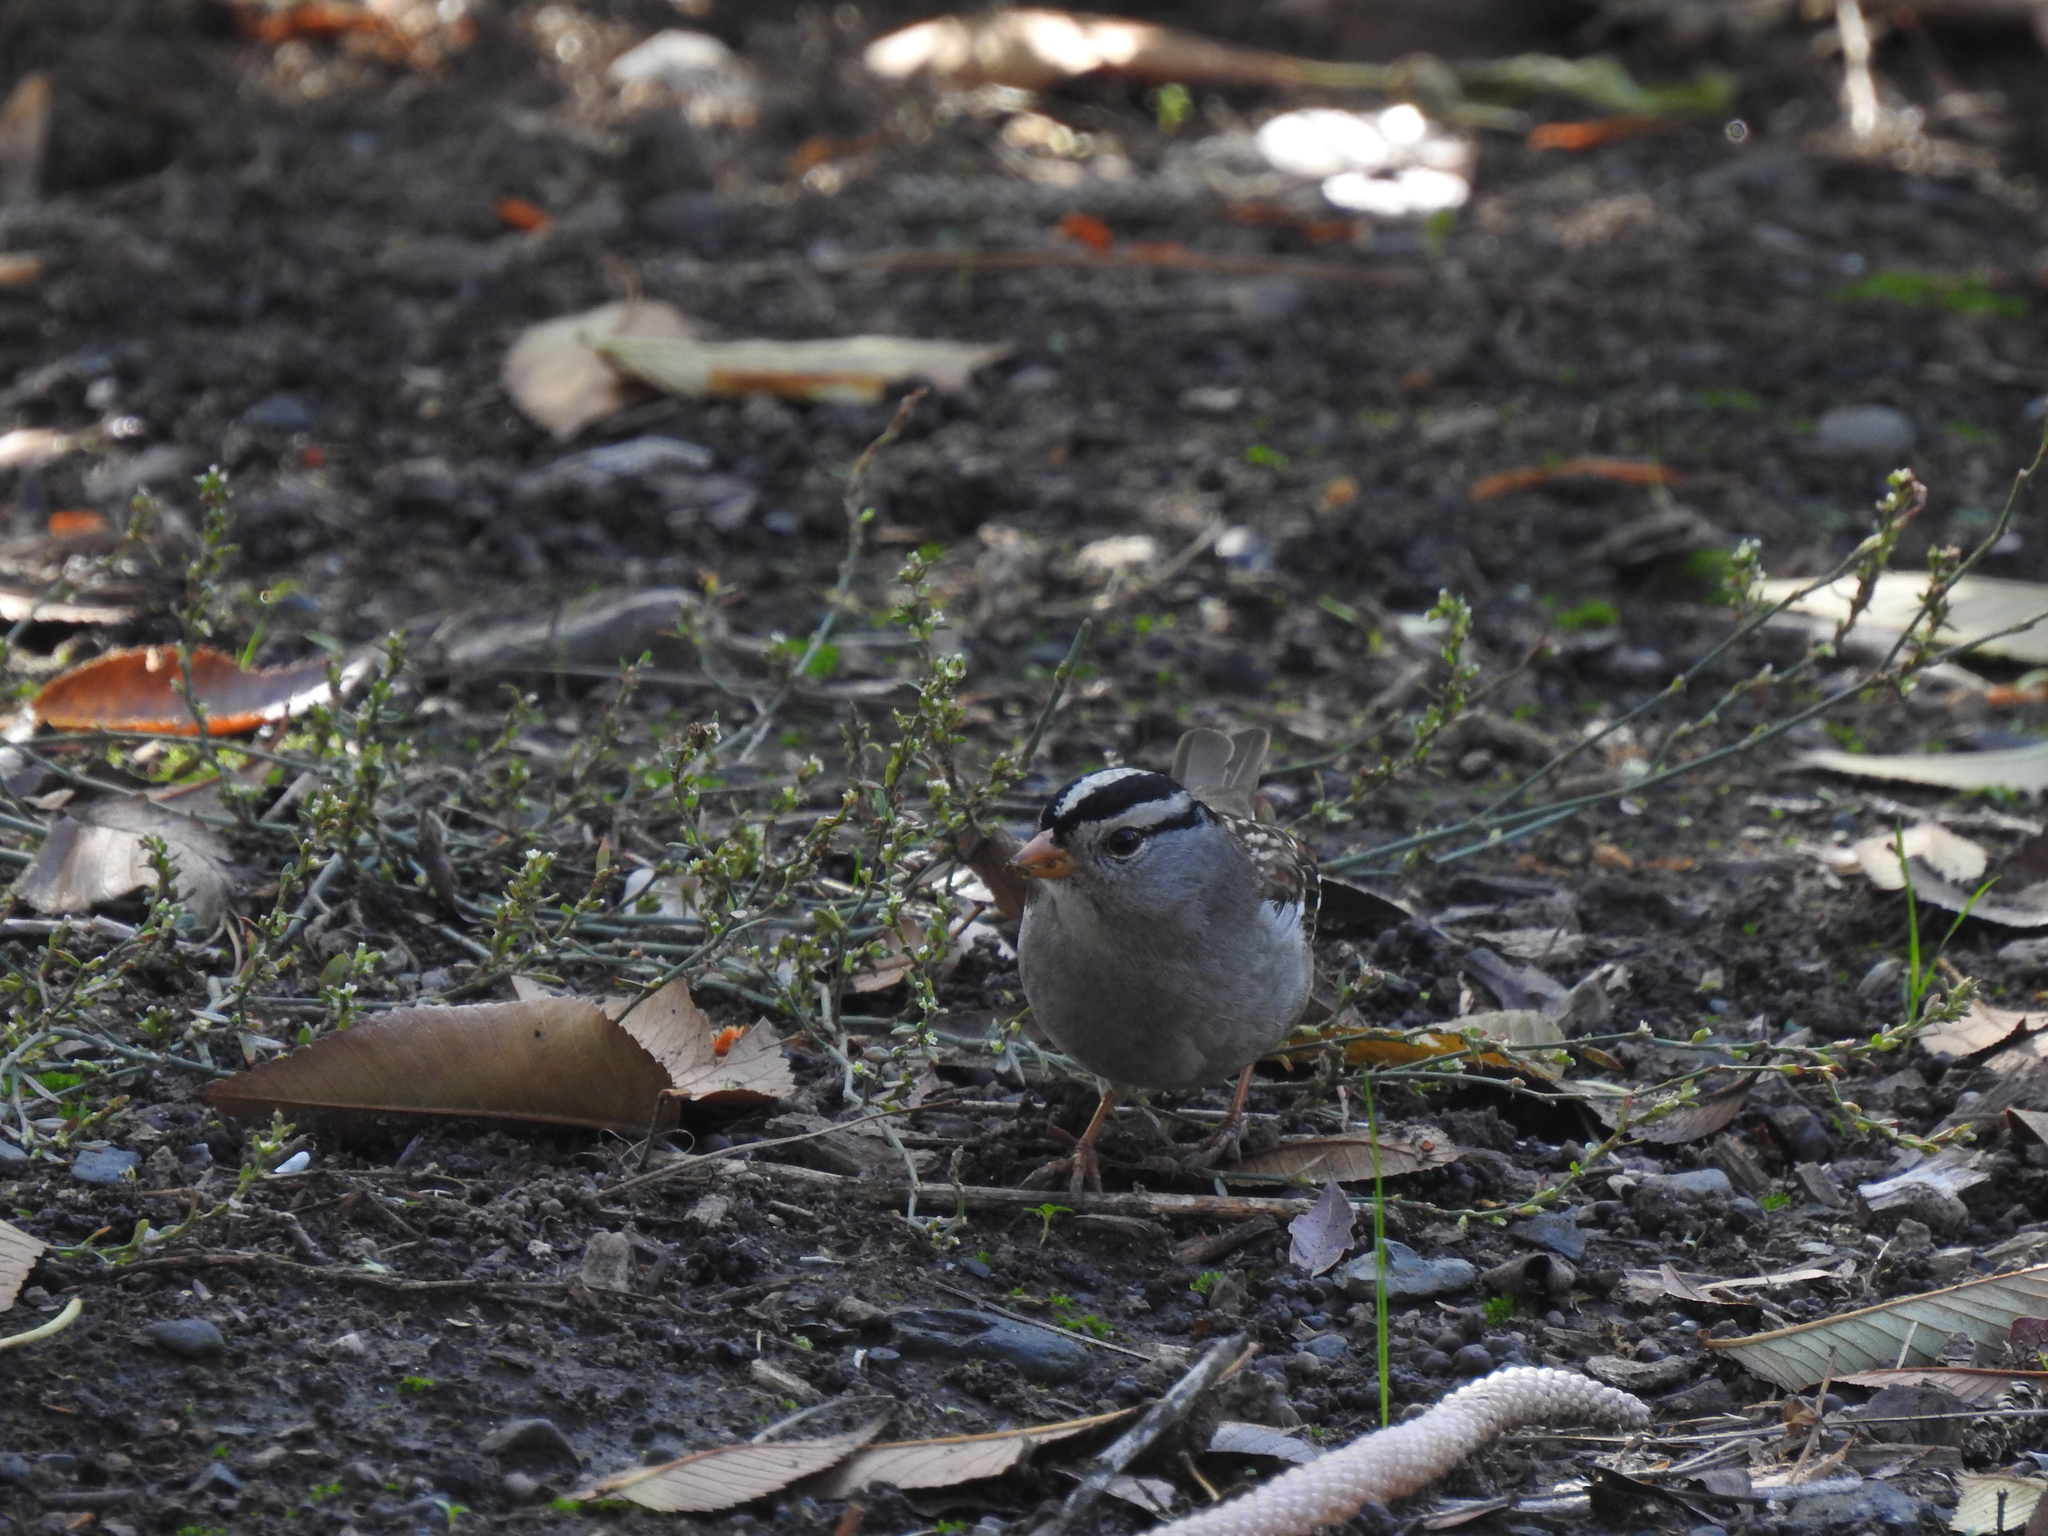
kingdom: Animalia
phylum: Chordata
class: Aves
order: Passeriformes
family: Passerellidae
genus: Zonotrichia
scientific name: Zonotrichia leucophrys
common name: White-crowned sparrow
